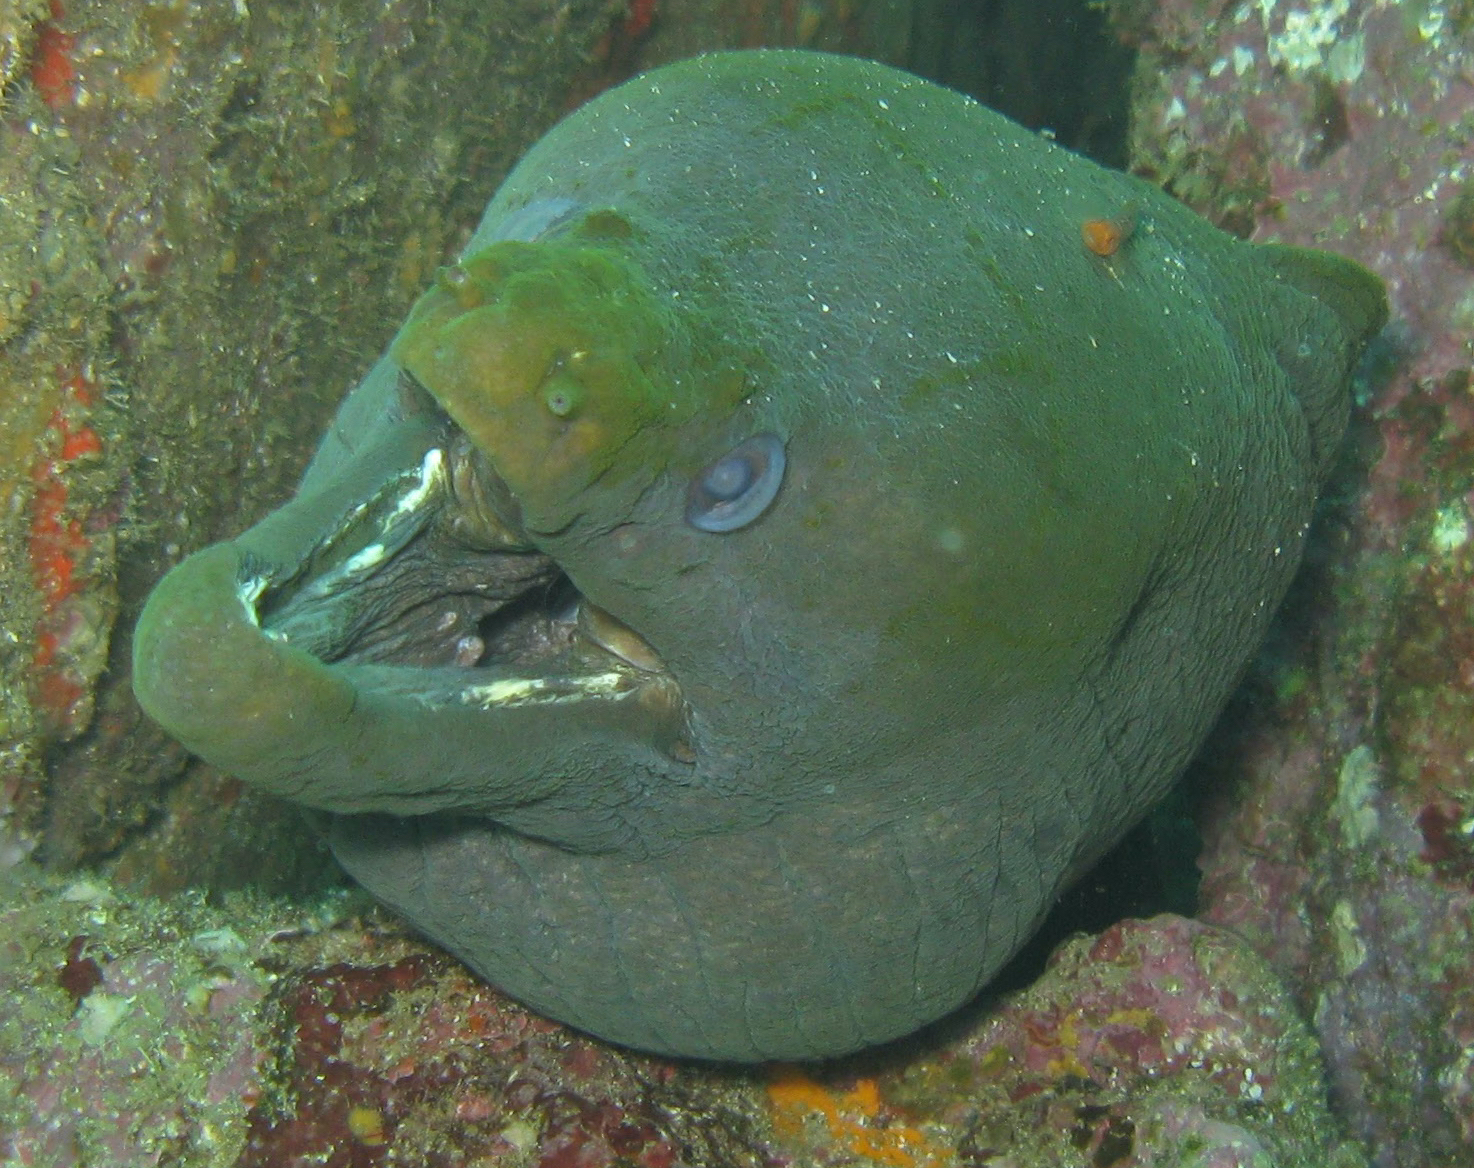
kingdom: Animalia
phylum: Chordata
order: Anguilliformes
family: Muraenidae
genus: Gymnothorax
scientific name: Gymnothorax castaneus
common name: Chestnut moray
